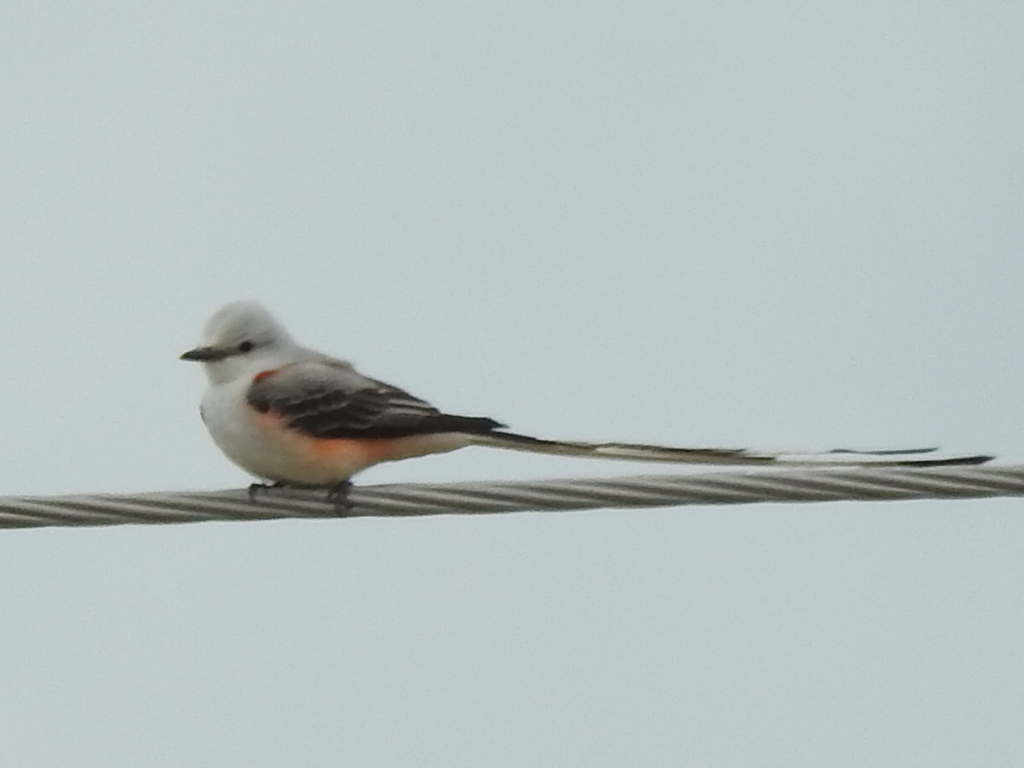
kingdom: Animalia
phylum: Chordata
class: Aves
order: Passeriformes
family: Tyrannidae
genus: Tyrannus
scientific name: Tyrannus forficatus
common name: Scissor-tailed flycatcher
